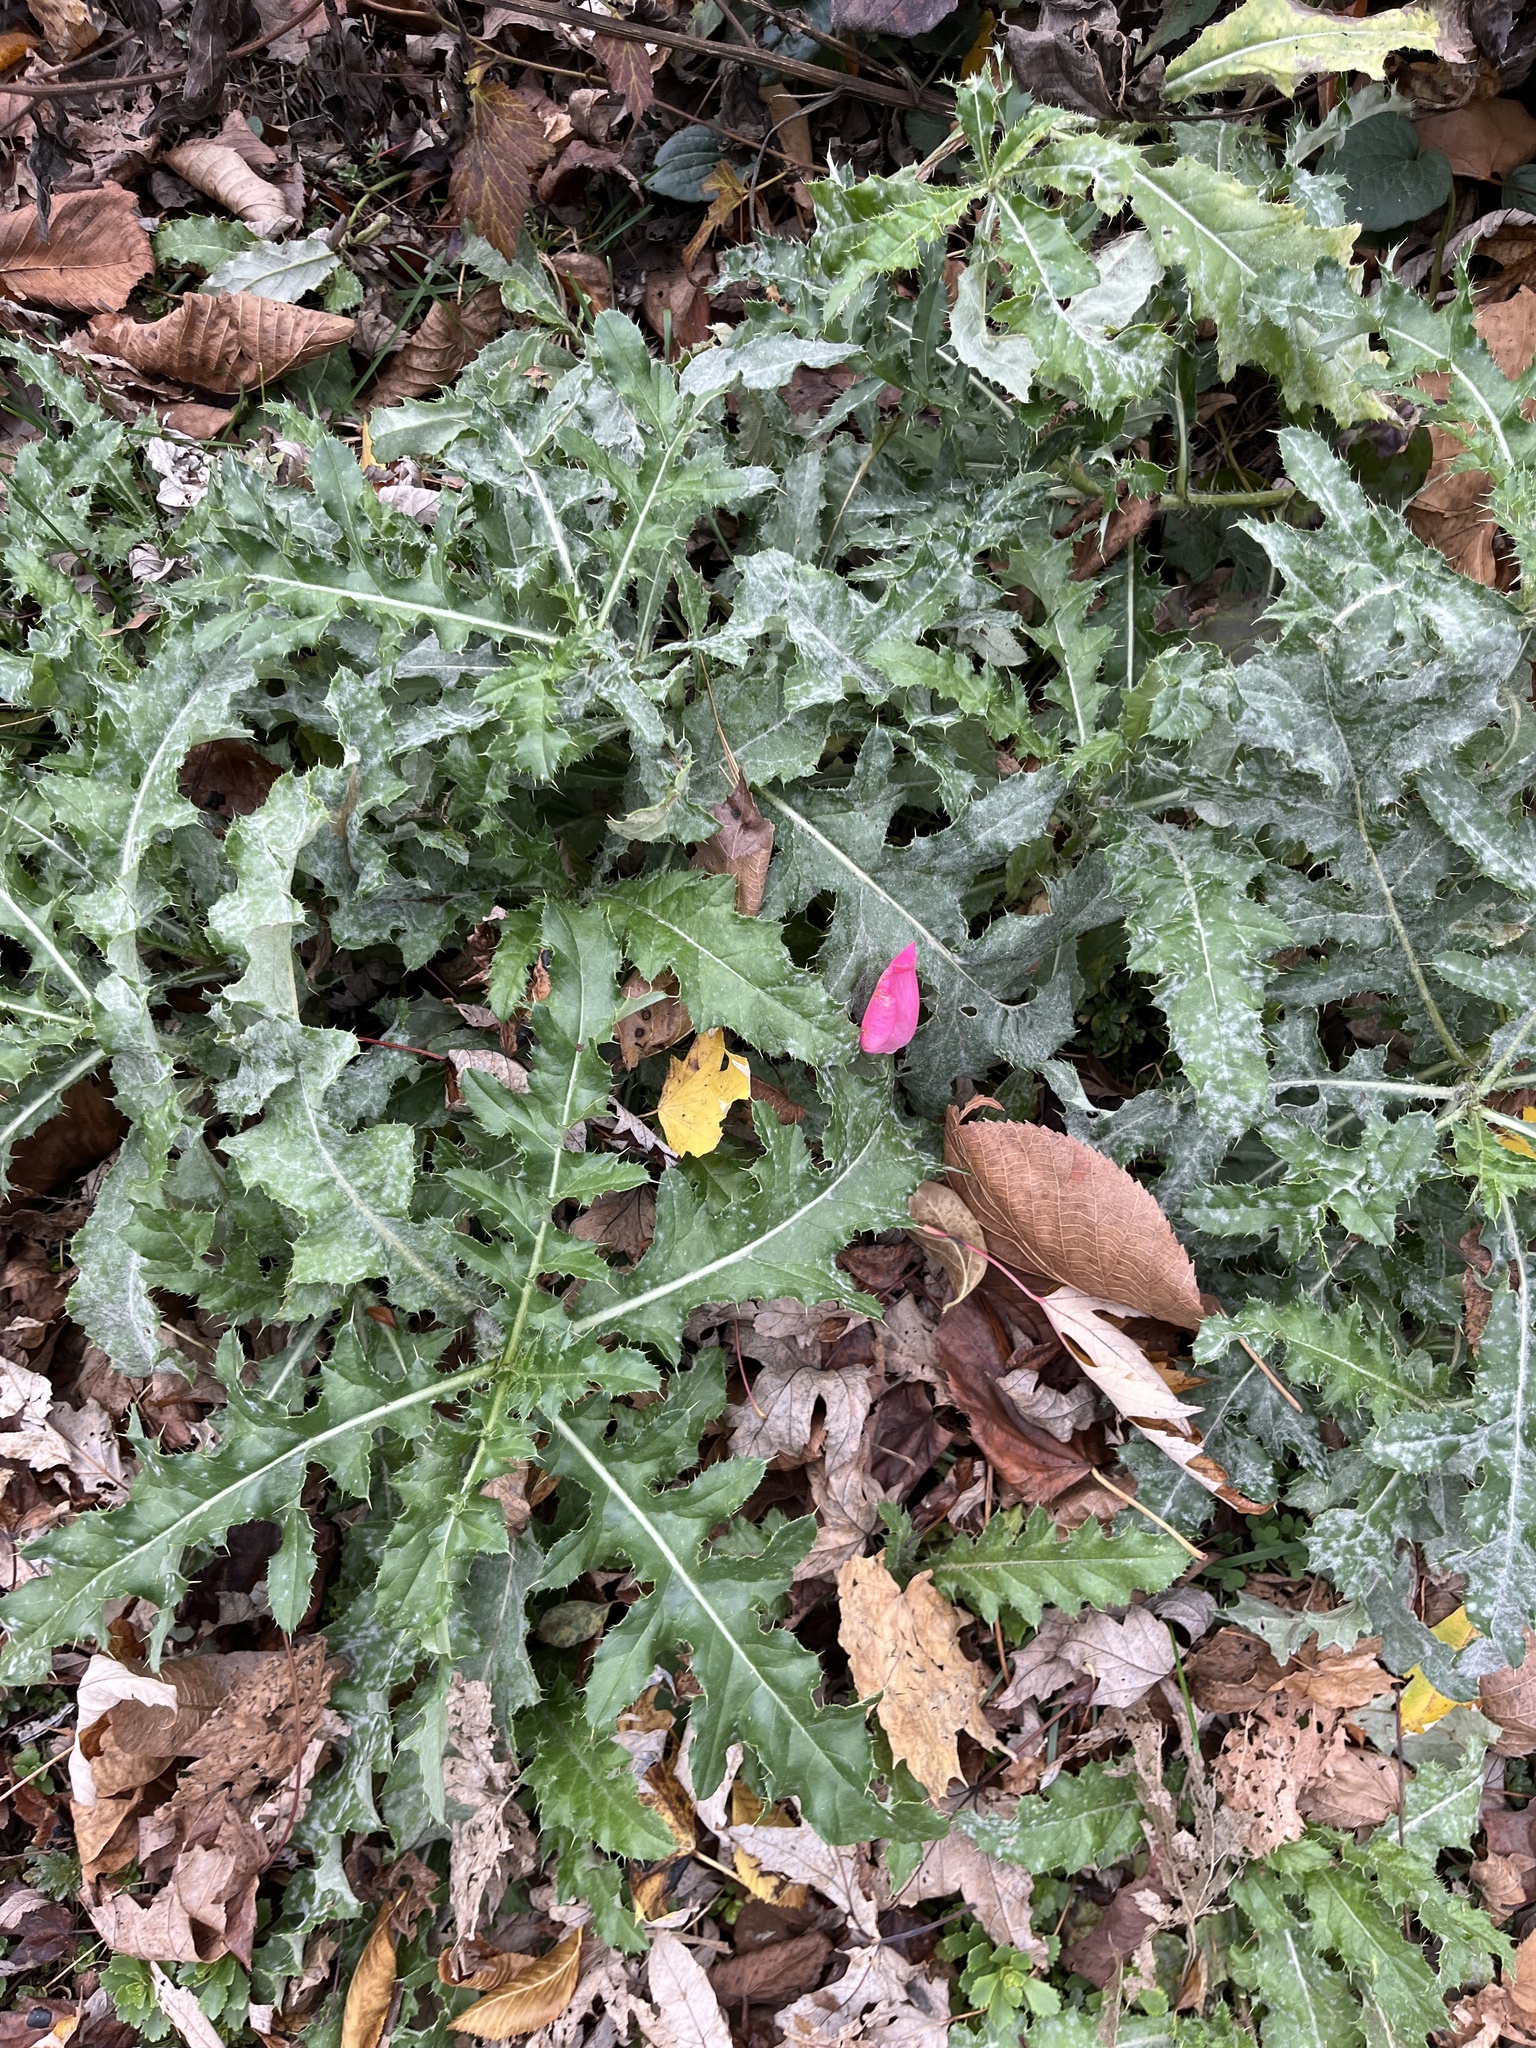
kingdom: Plantae
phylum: Tracheophyta
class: Magnoliopsida
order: Asterales
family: Asteraceae
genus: Cirsium
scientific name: Cirsium arvense
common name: Creeping thistle
